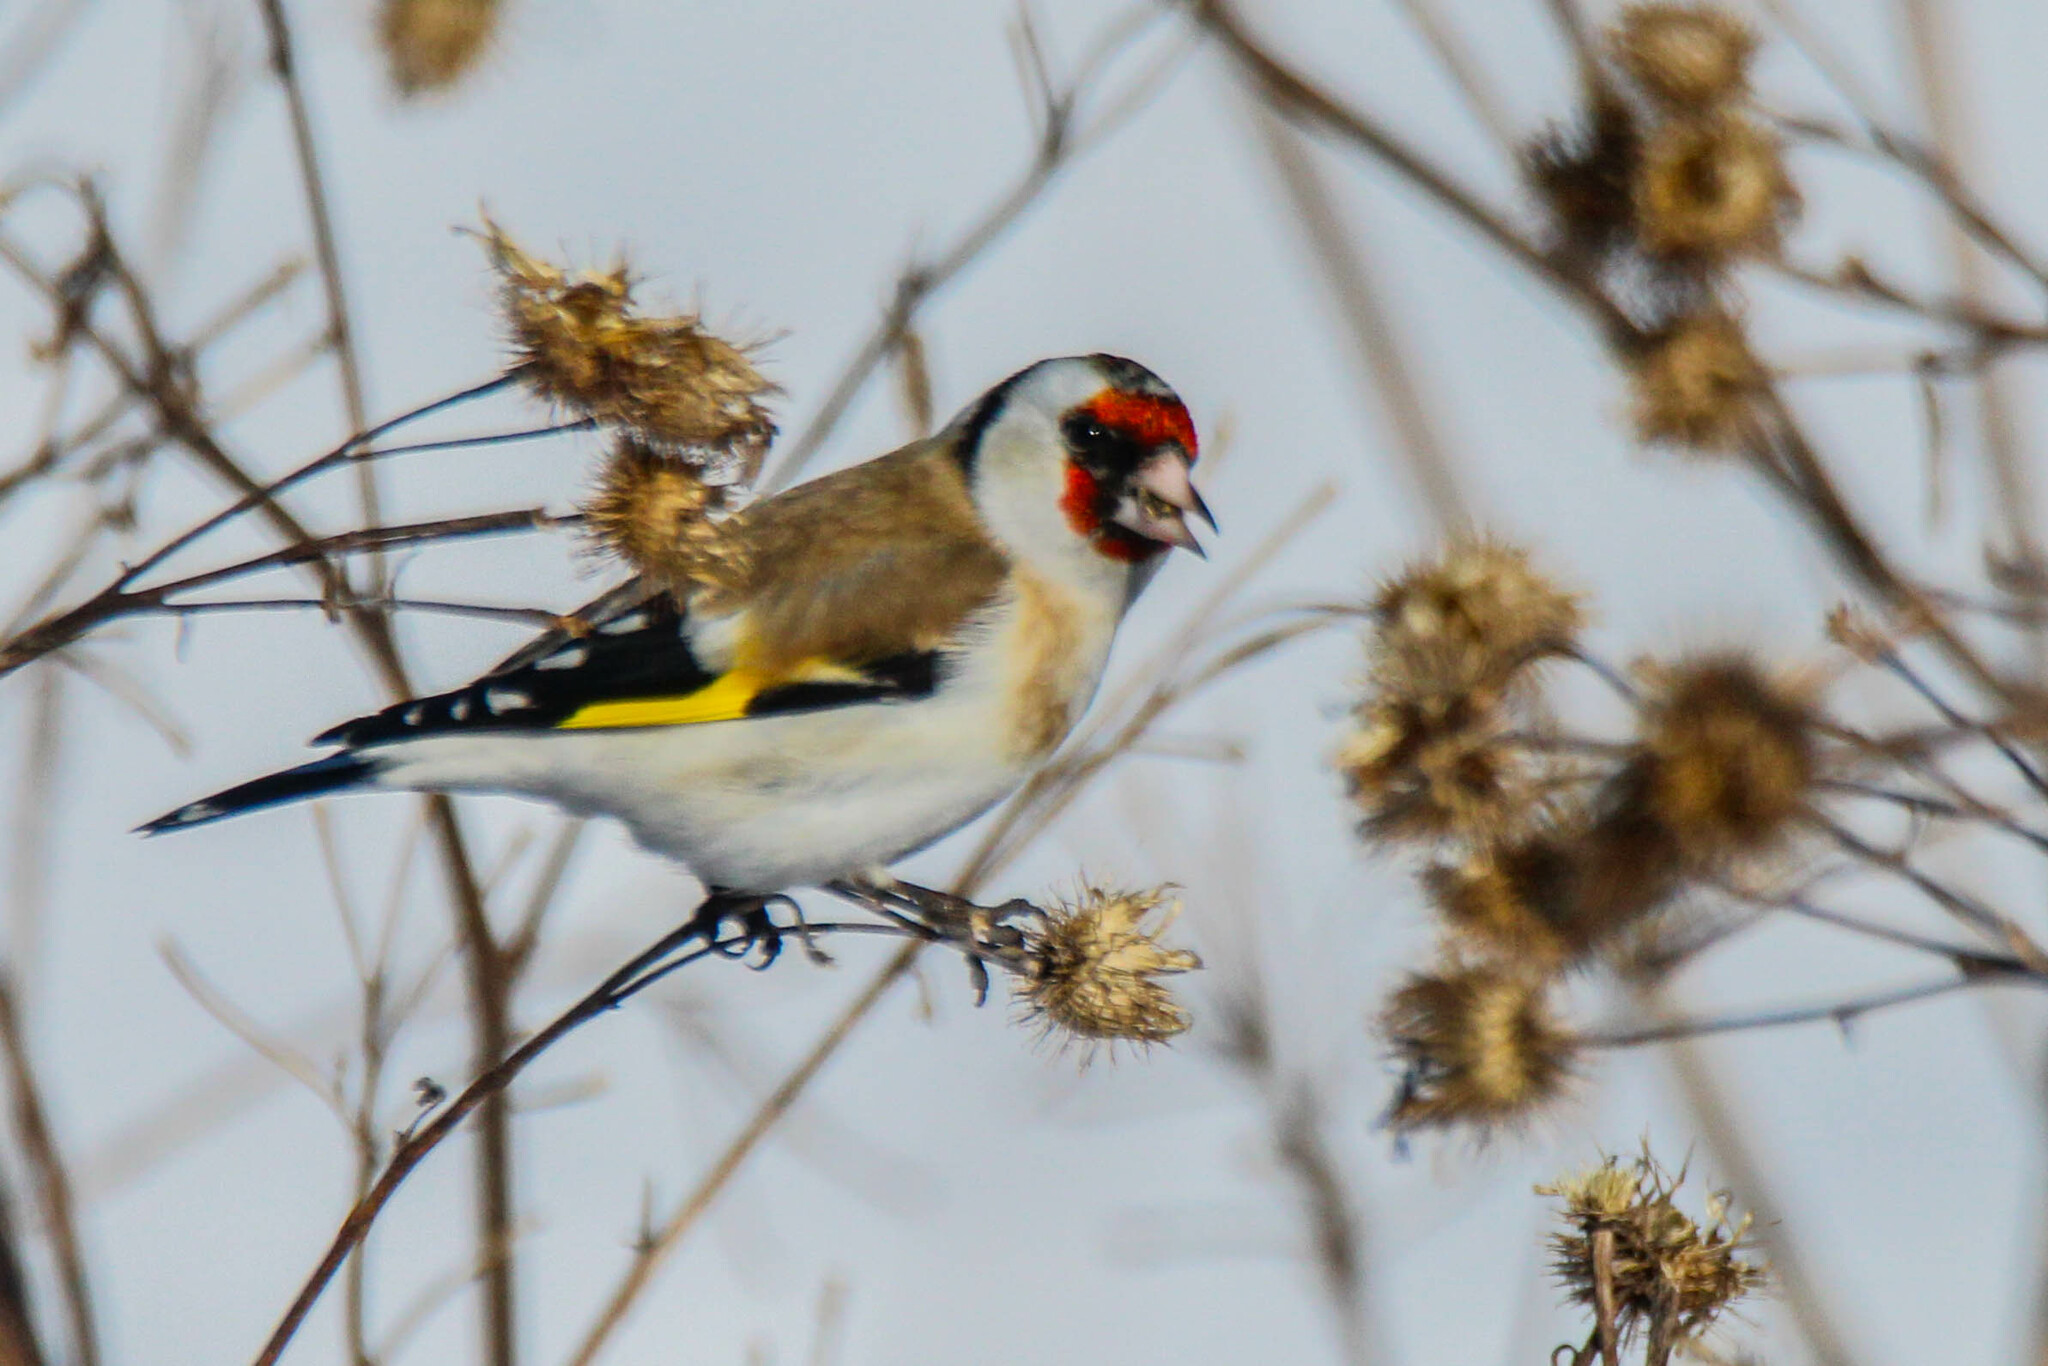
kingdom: Animalia
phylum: Chordata
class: Aves
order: Passeriformes
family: Fringillidae
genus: Carduelis
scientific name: Carduelis carduelis
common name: European goldfinch
